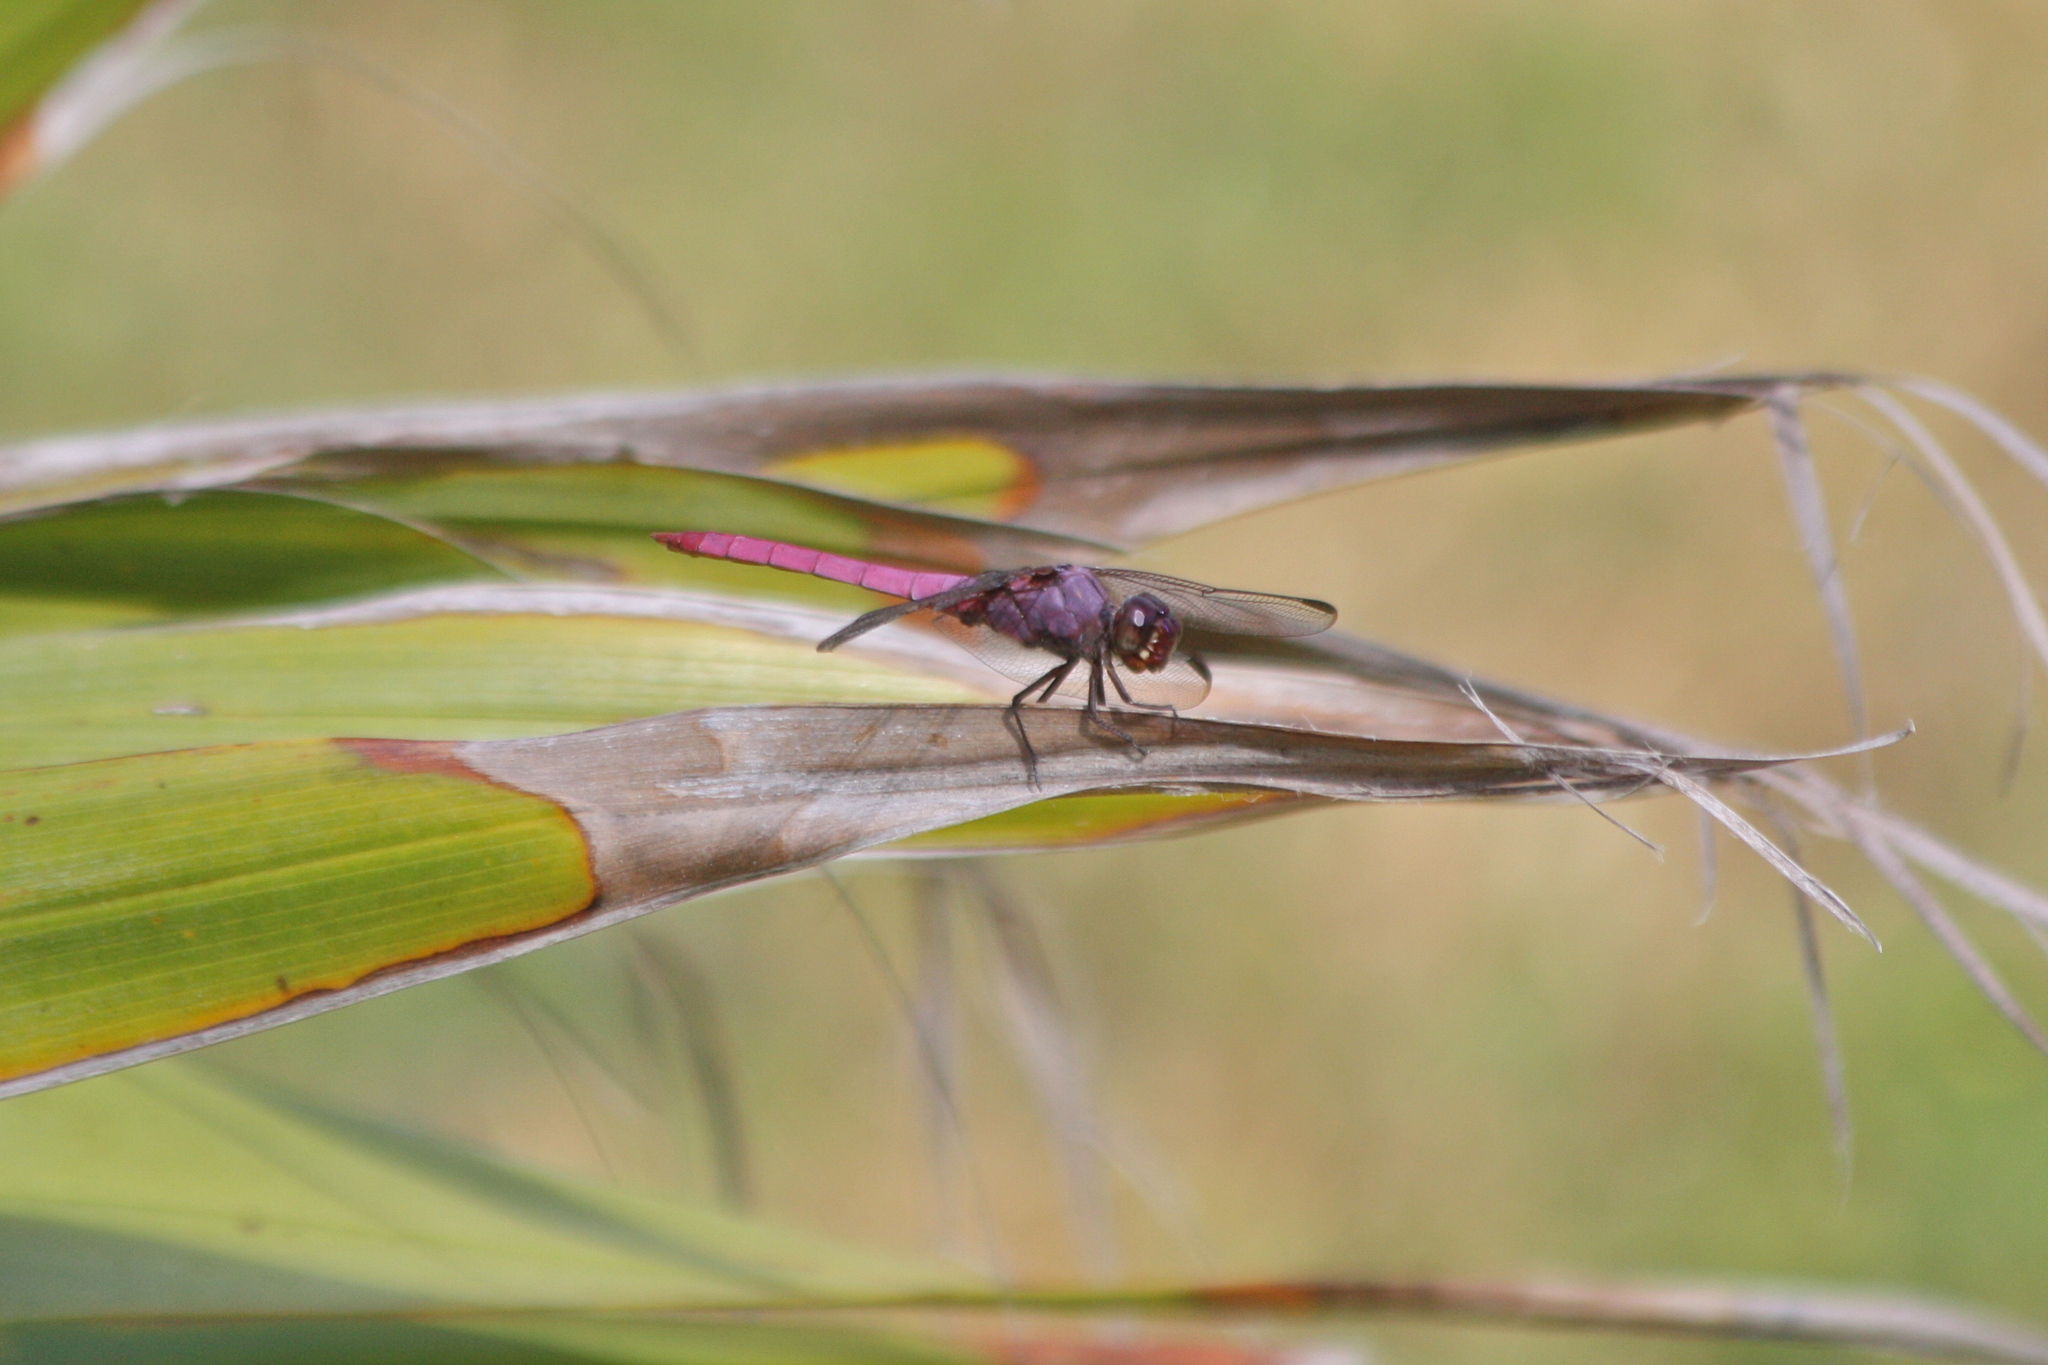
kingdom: Animalia
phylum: Arthropoda
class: Insecta
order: Odonata
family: Libellulidae
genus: Orthemis
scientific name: Orthemis ferruginea
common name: Roseate skimmer
